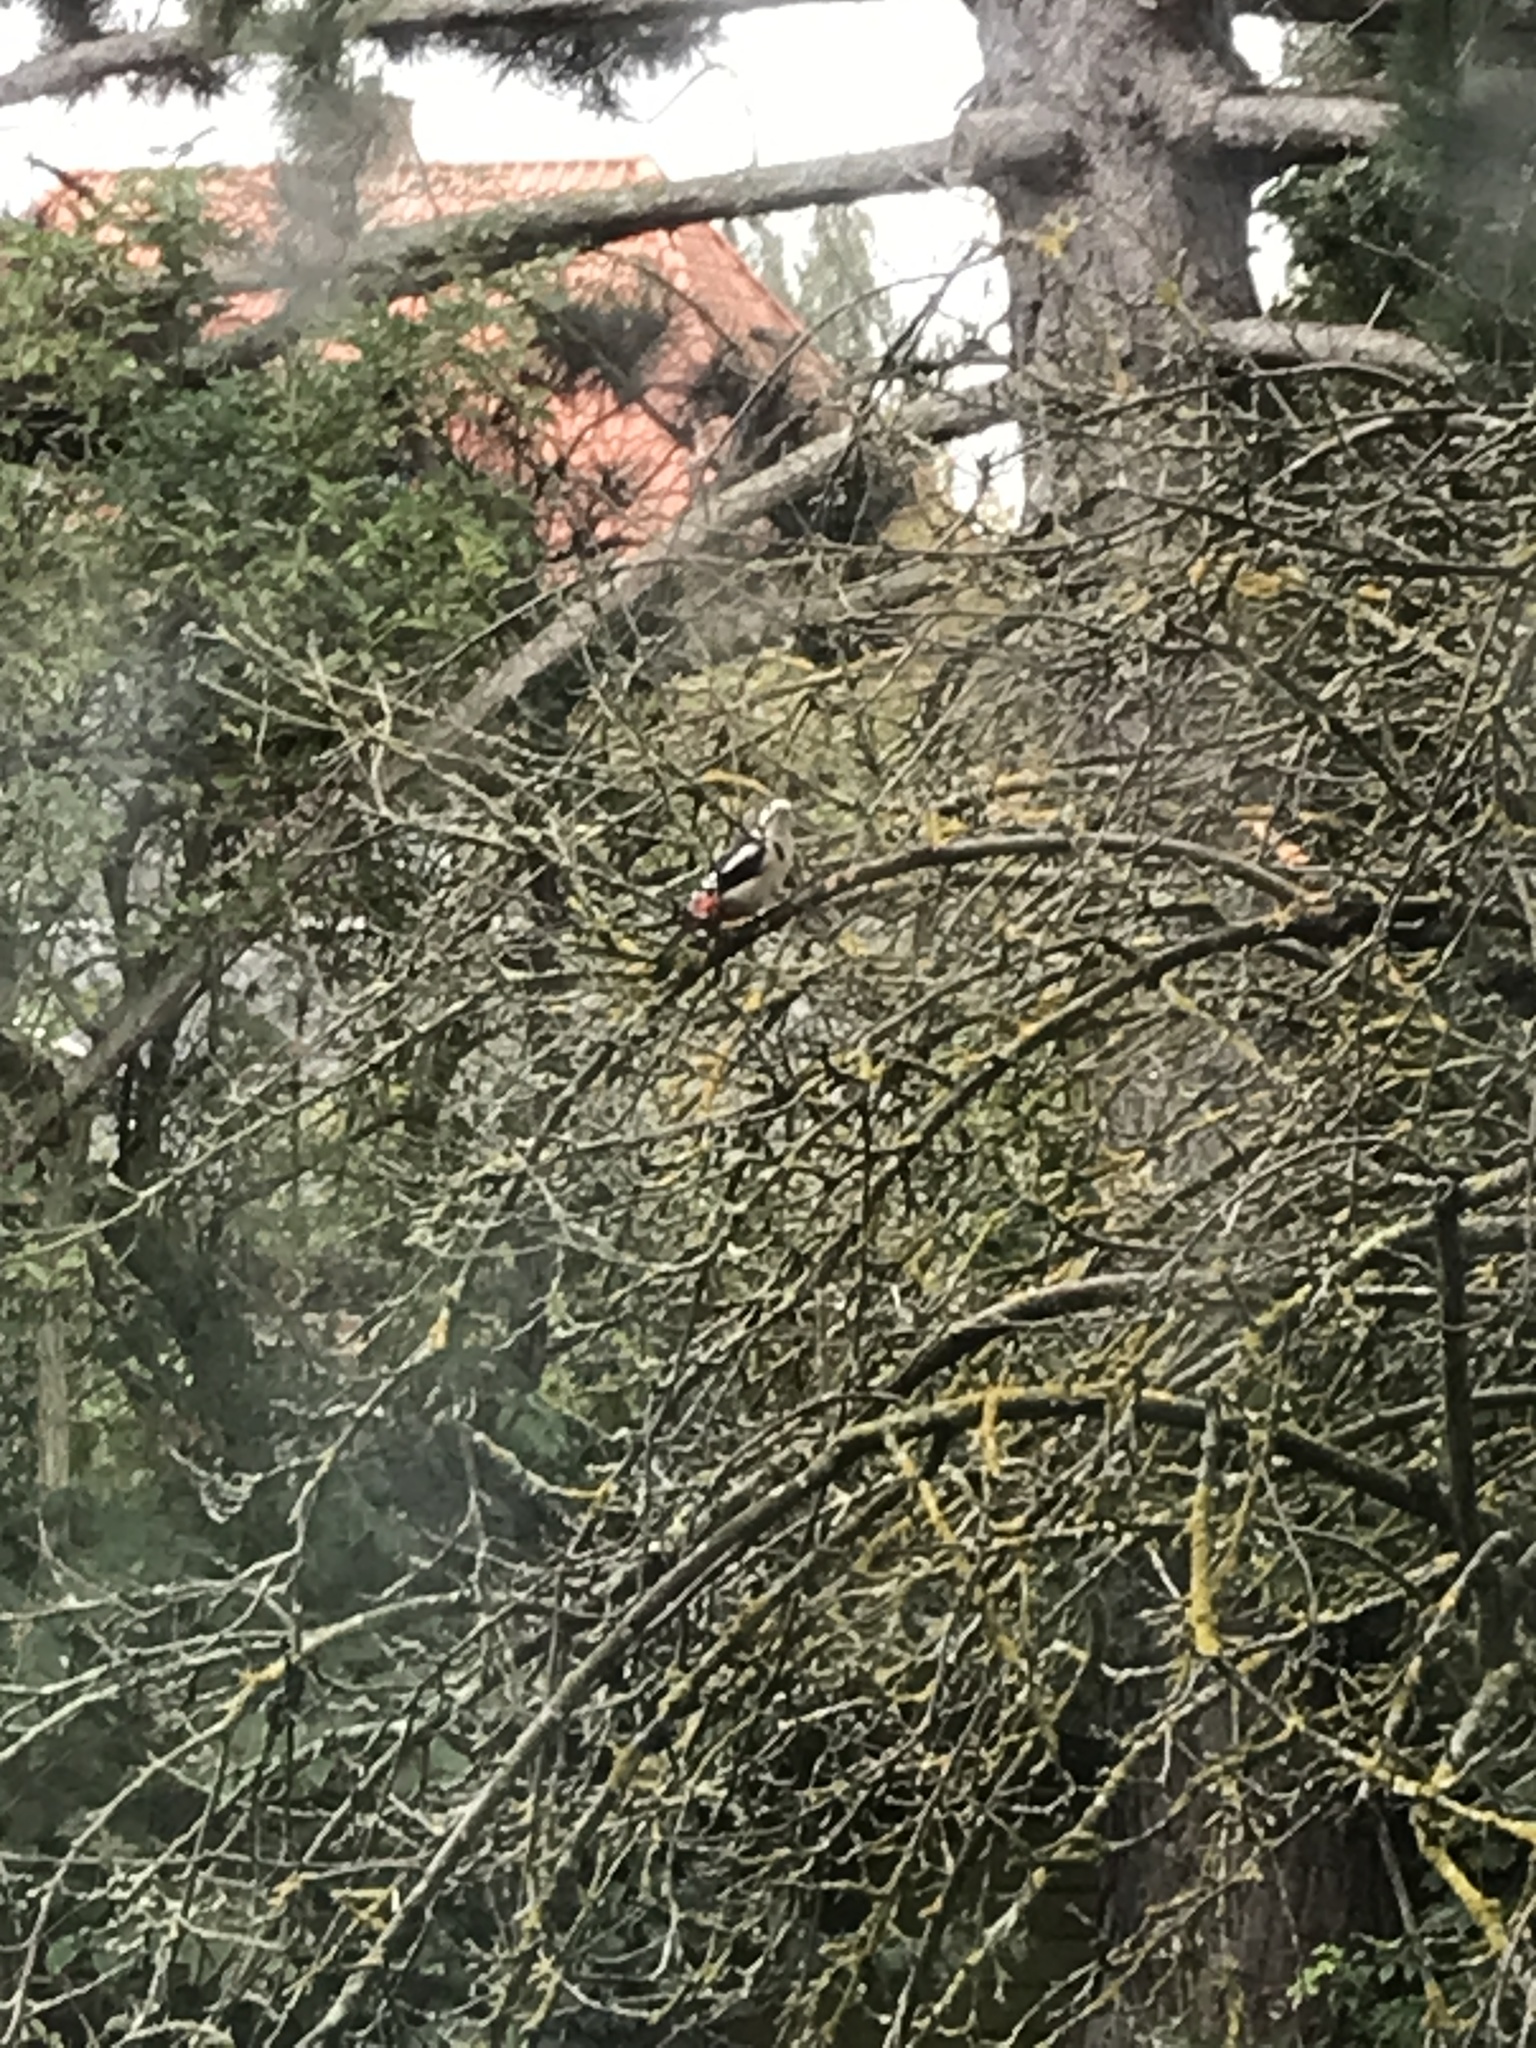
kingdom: Animalia
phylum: Chordata
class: Aves
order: Piciformes
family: Picidae
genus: Dendrocopos
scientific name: Dendrocopos major
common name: Great spotted woodpecker
